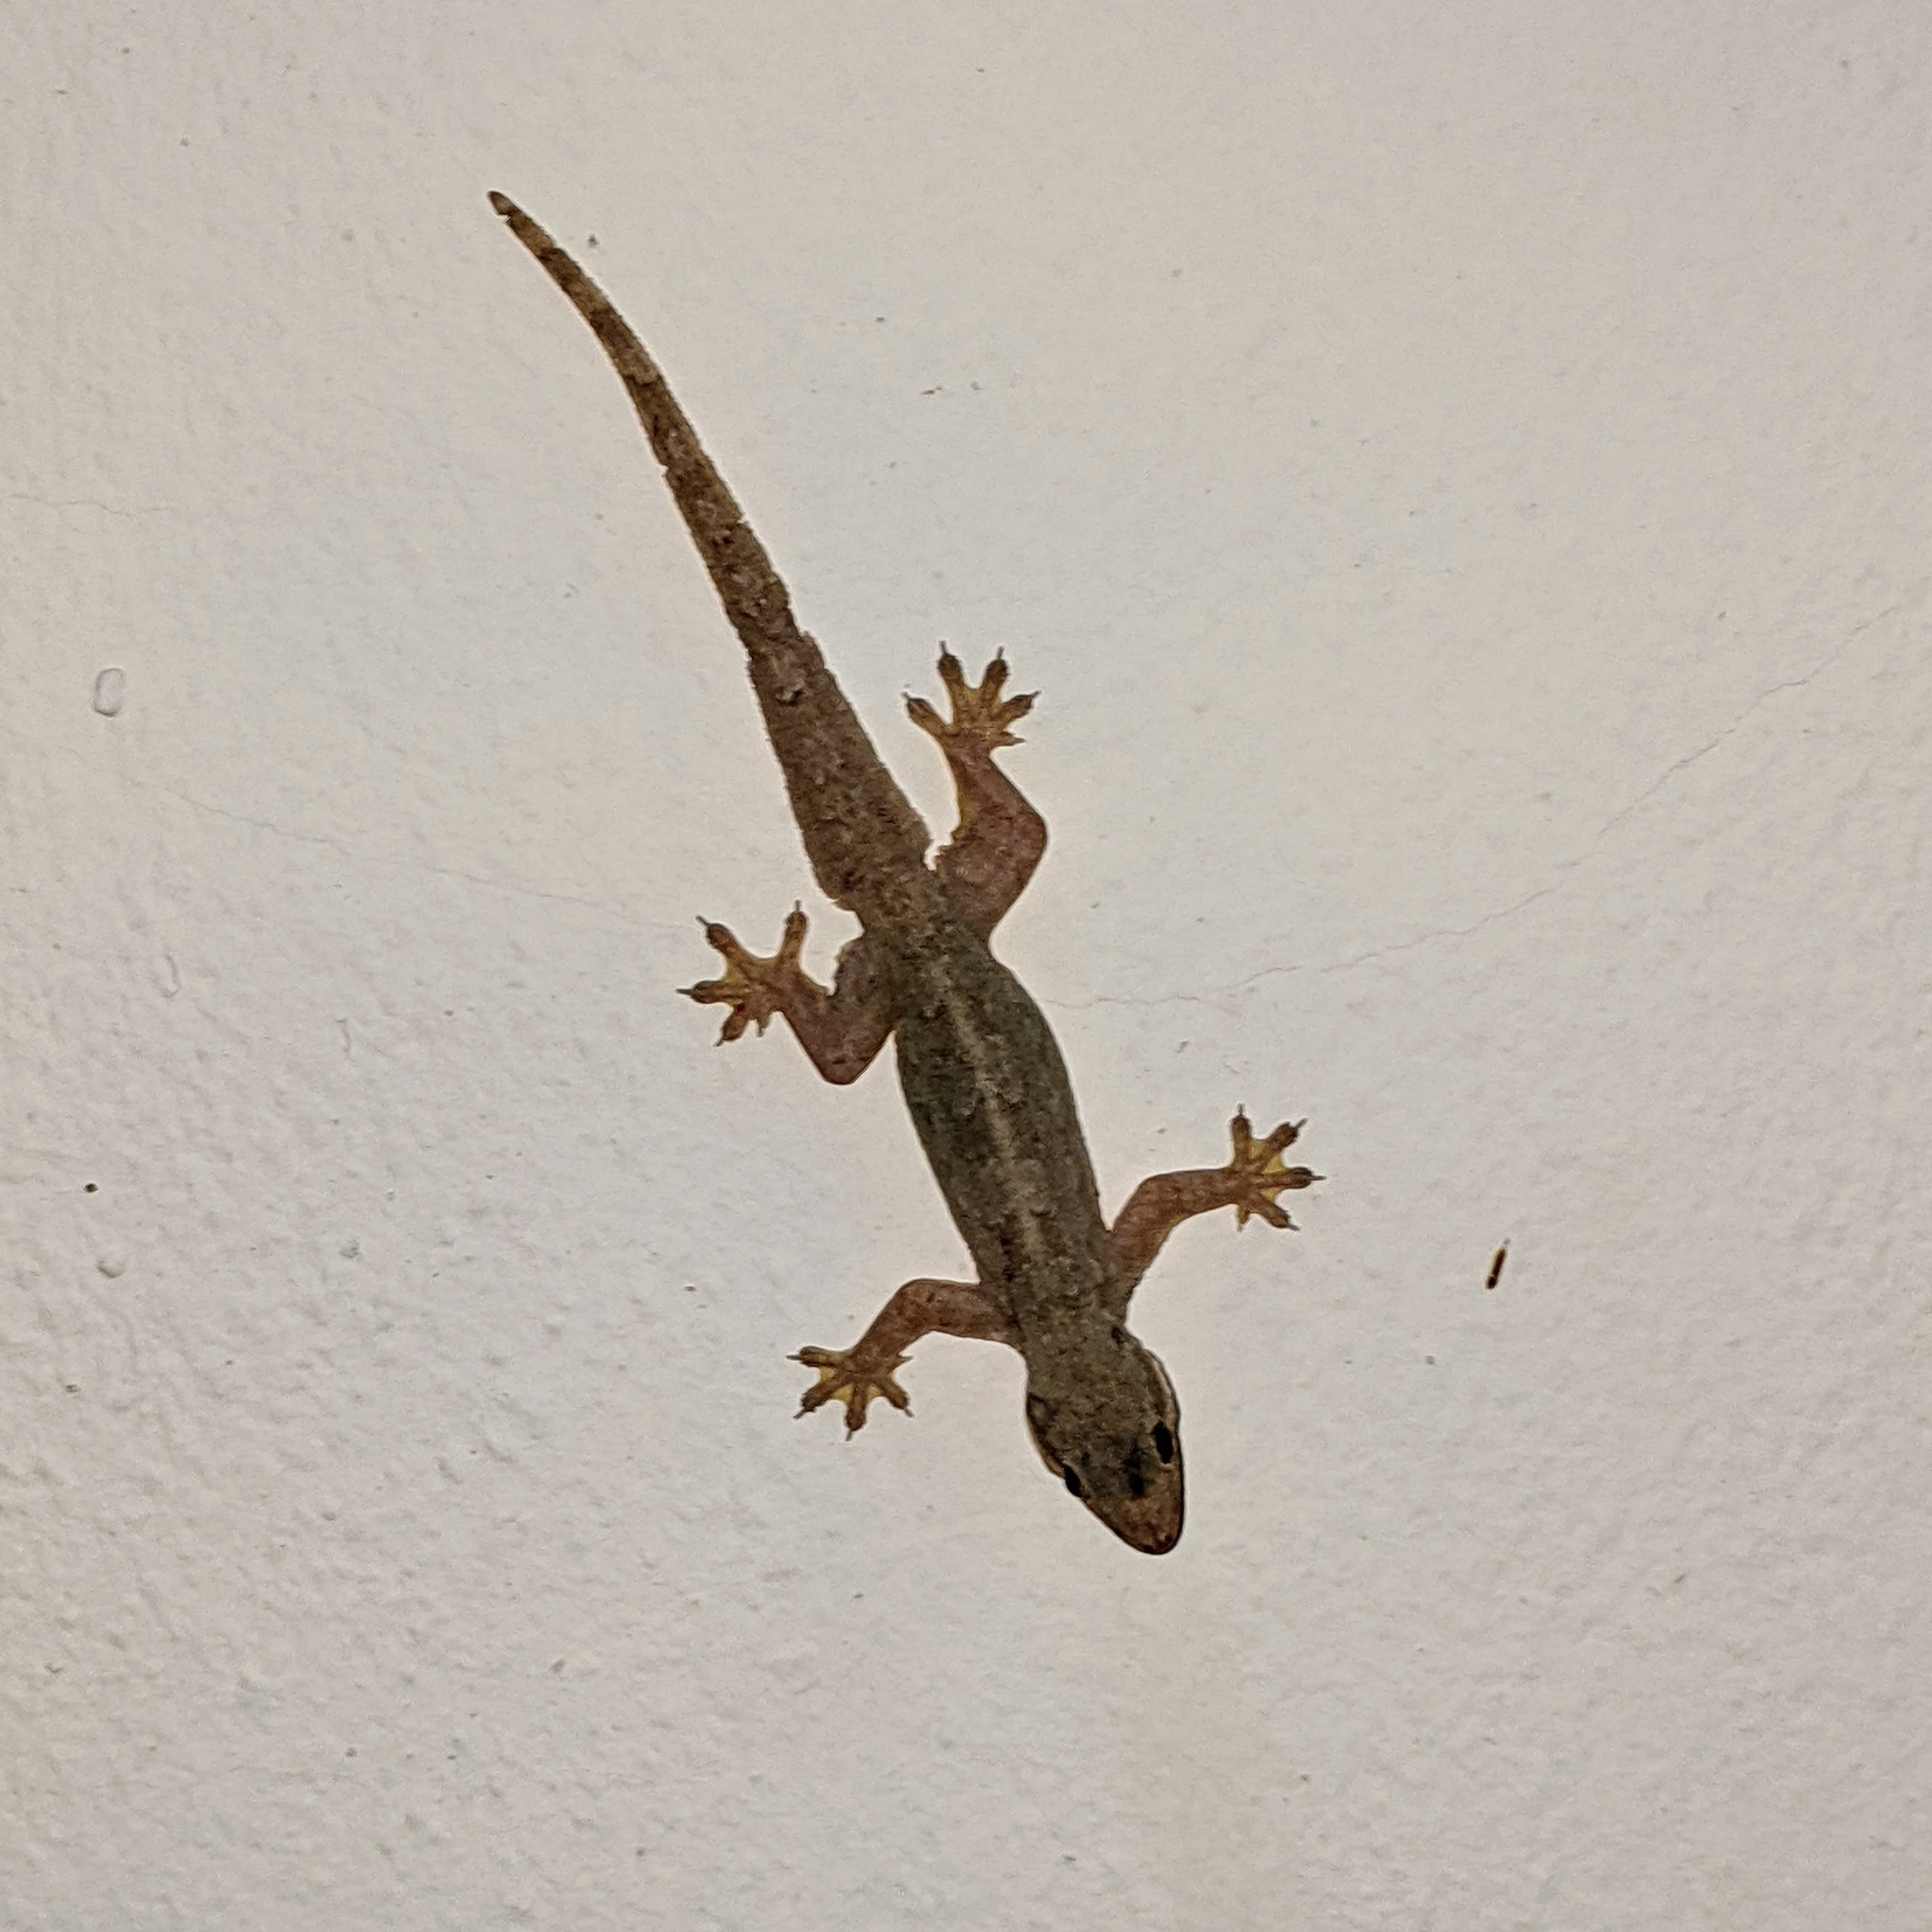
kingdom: Animalia
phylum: Chordata
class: Squamata
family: Gekkonidae
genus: Hemidactylus
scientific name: Hemidactylus platyurus
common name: Flat-tailed house gecko
